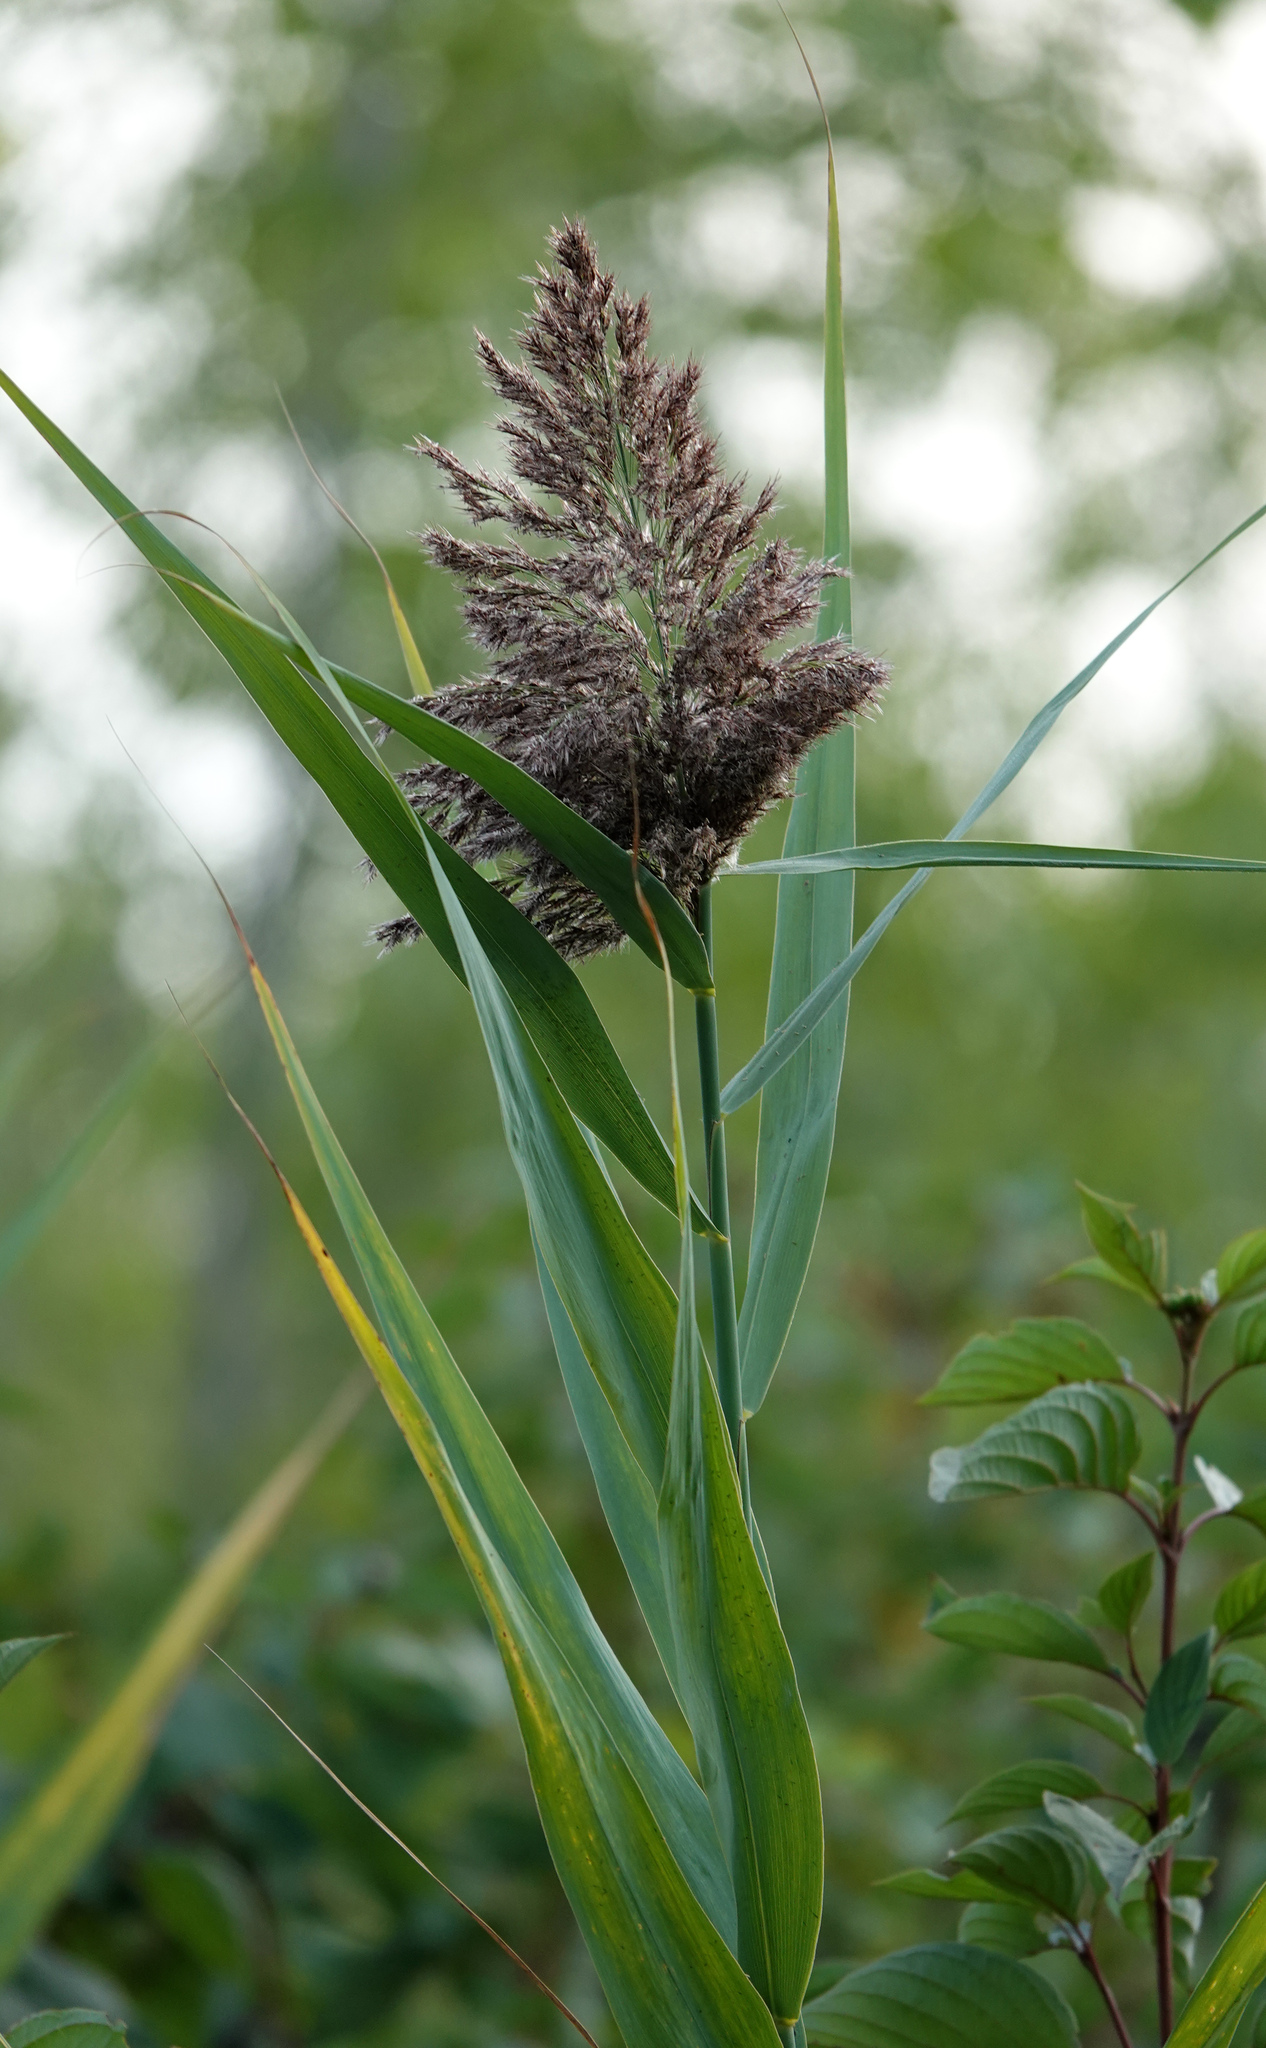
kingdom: Plantae
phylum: Tracheophyta
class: Liliopsida
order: Poales
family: Poaceae
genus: Phragmites
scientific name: Phragmites australis
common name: Common reed
